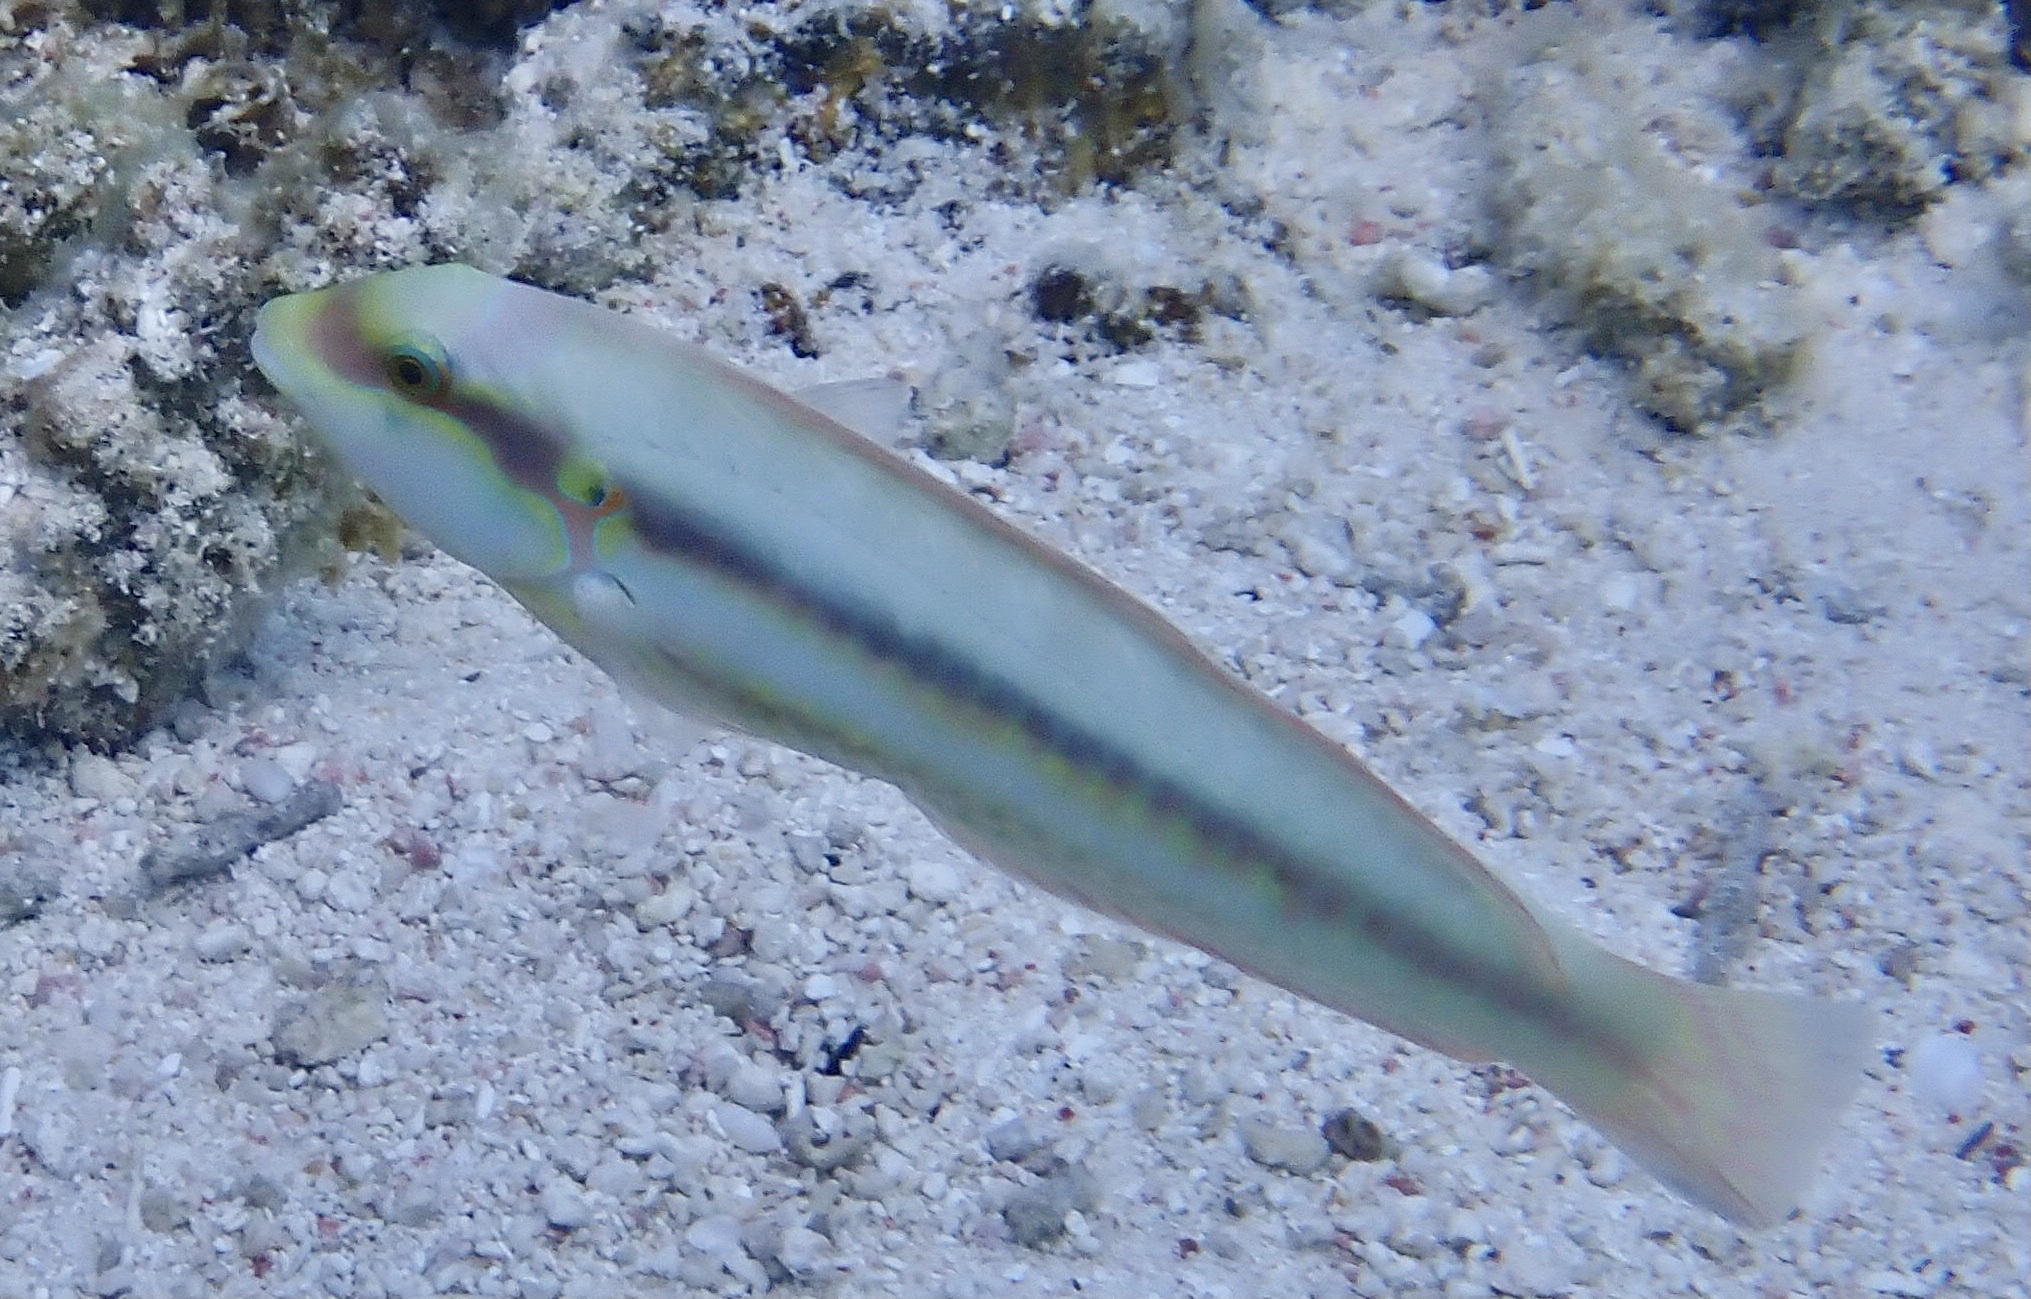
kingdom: Animalia
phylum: Chordata
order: Perciformes
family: Labridae
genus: Halichoeres
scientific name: Halichoeres bivittatus
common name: Slippery dick
